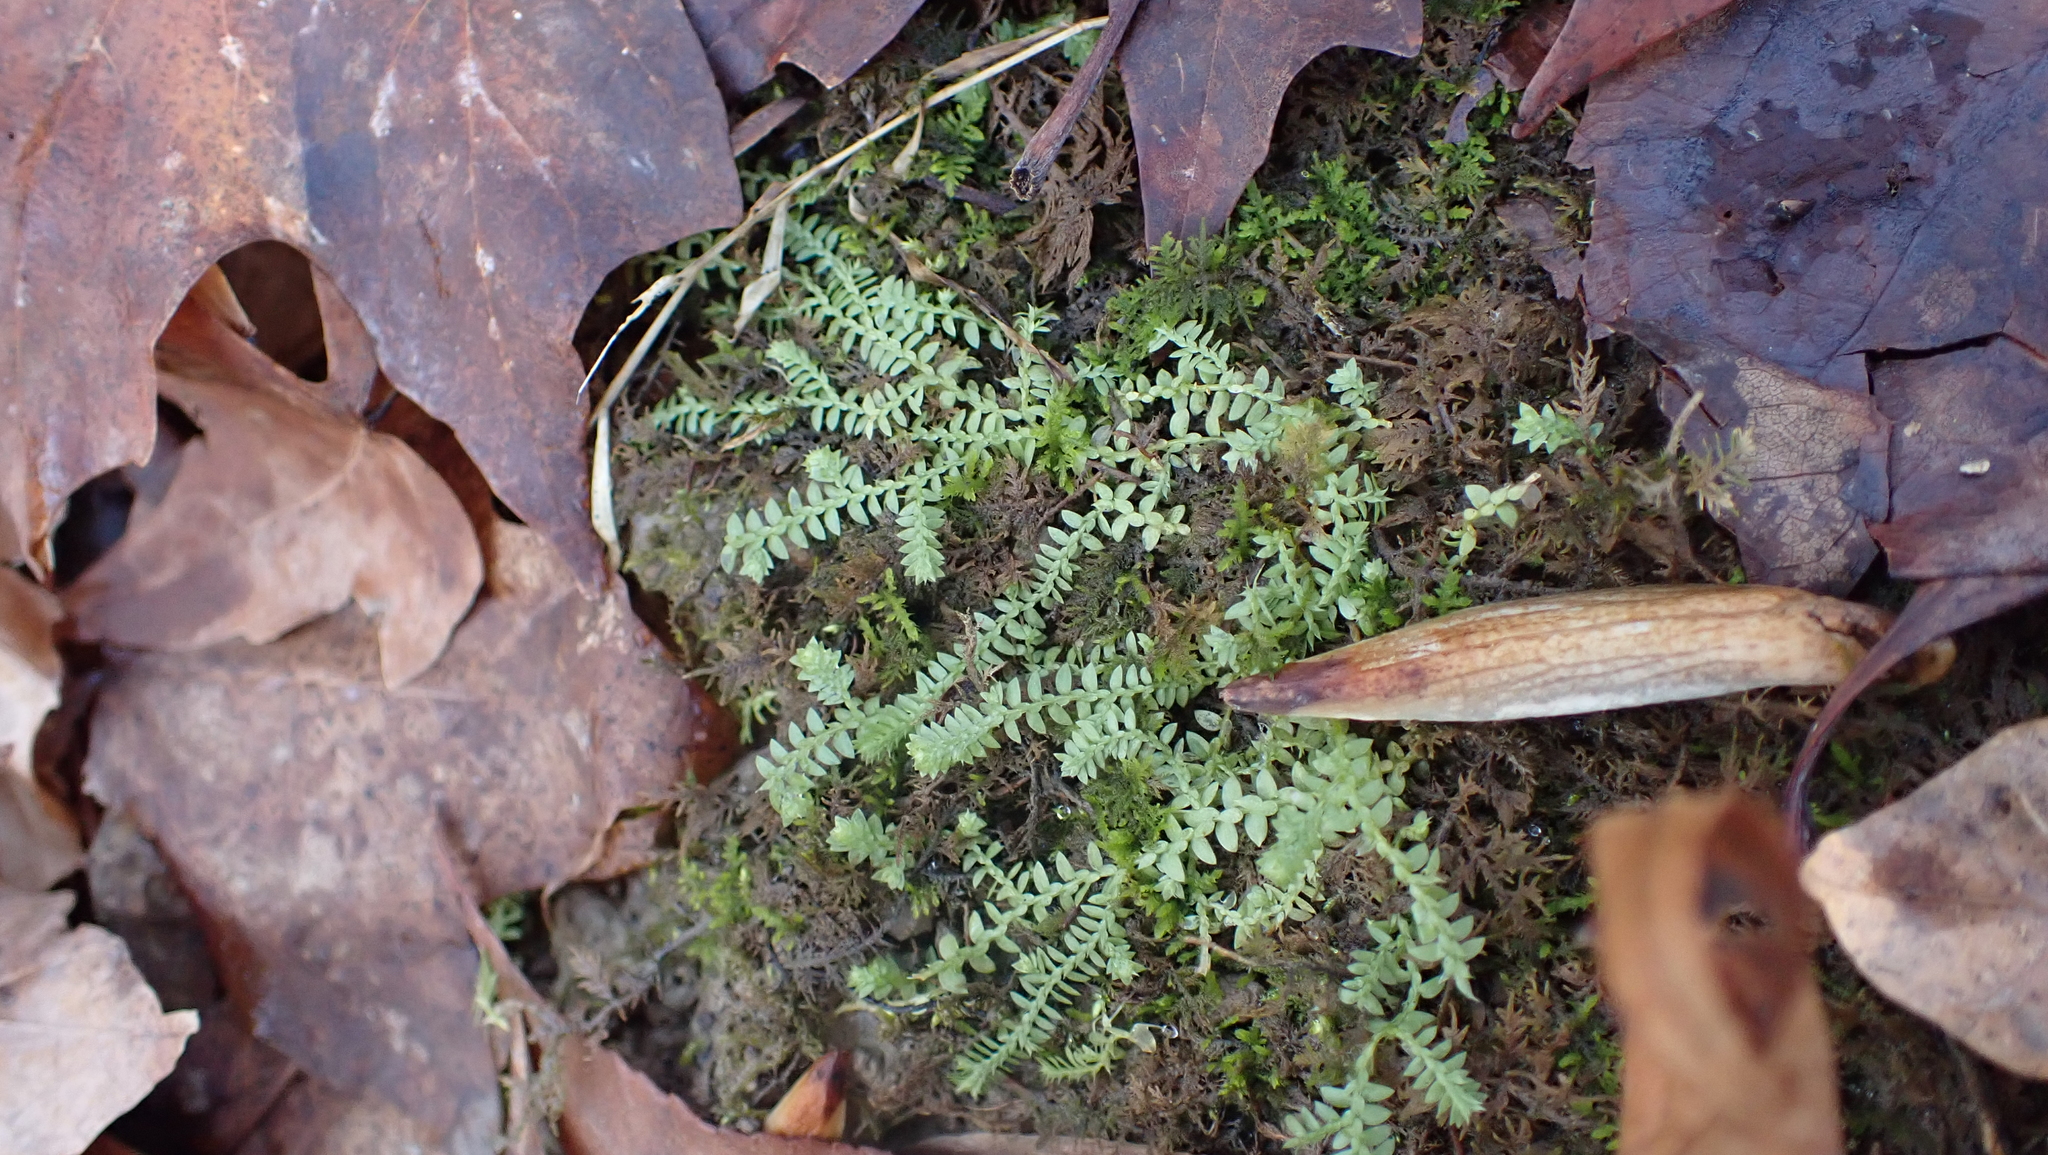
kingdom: Plantae
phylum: Tracheophyta
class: Lycopodiopsida
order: Selaginellales
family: Selaginellaceae
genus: Selaginella
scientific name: Selaginella apoda
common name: Creeping spikemoss
